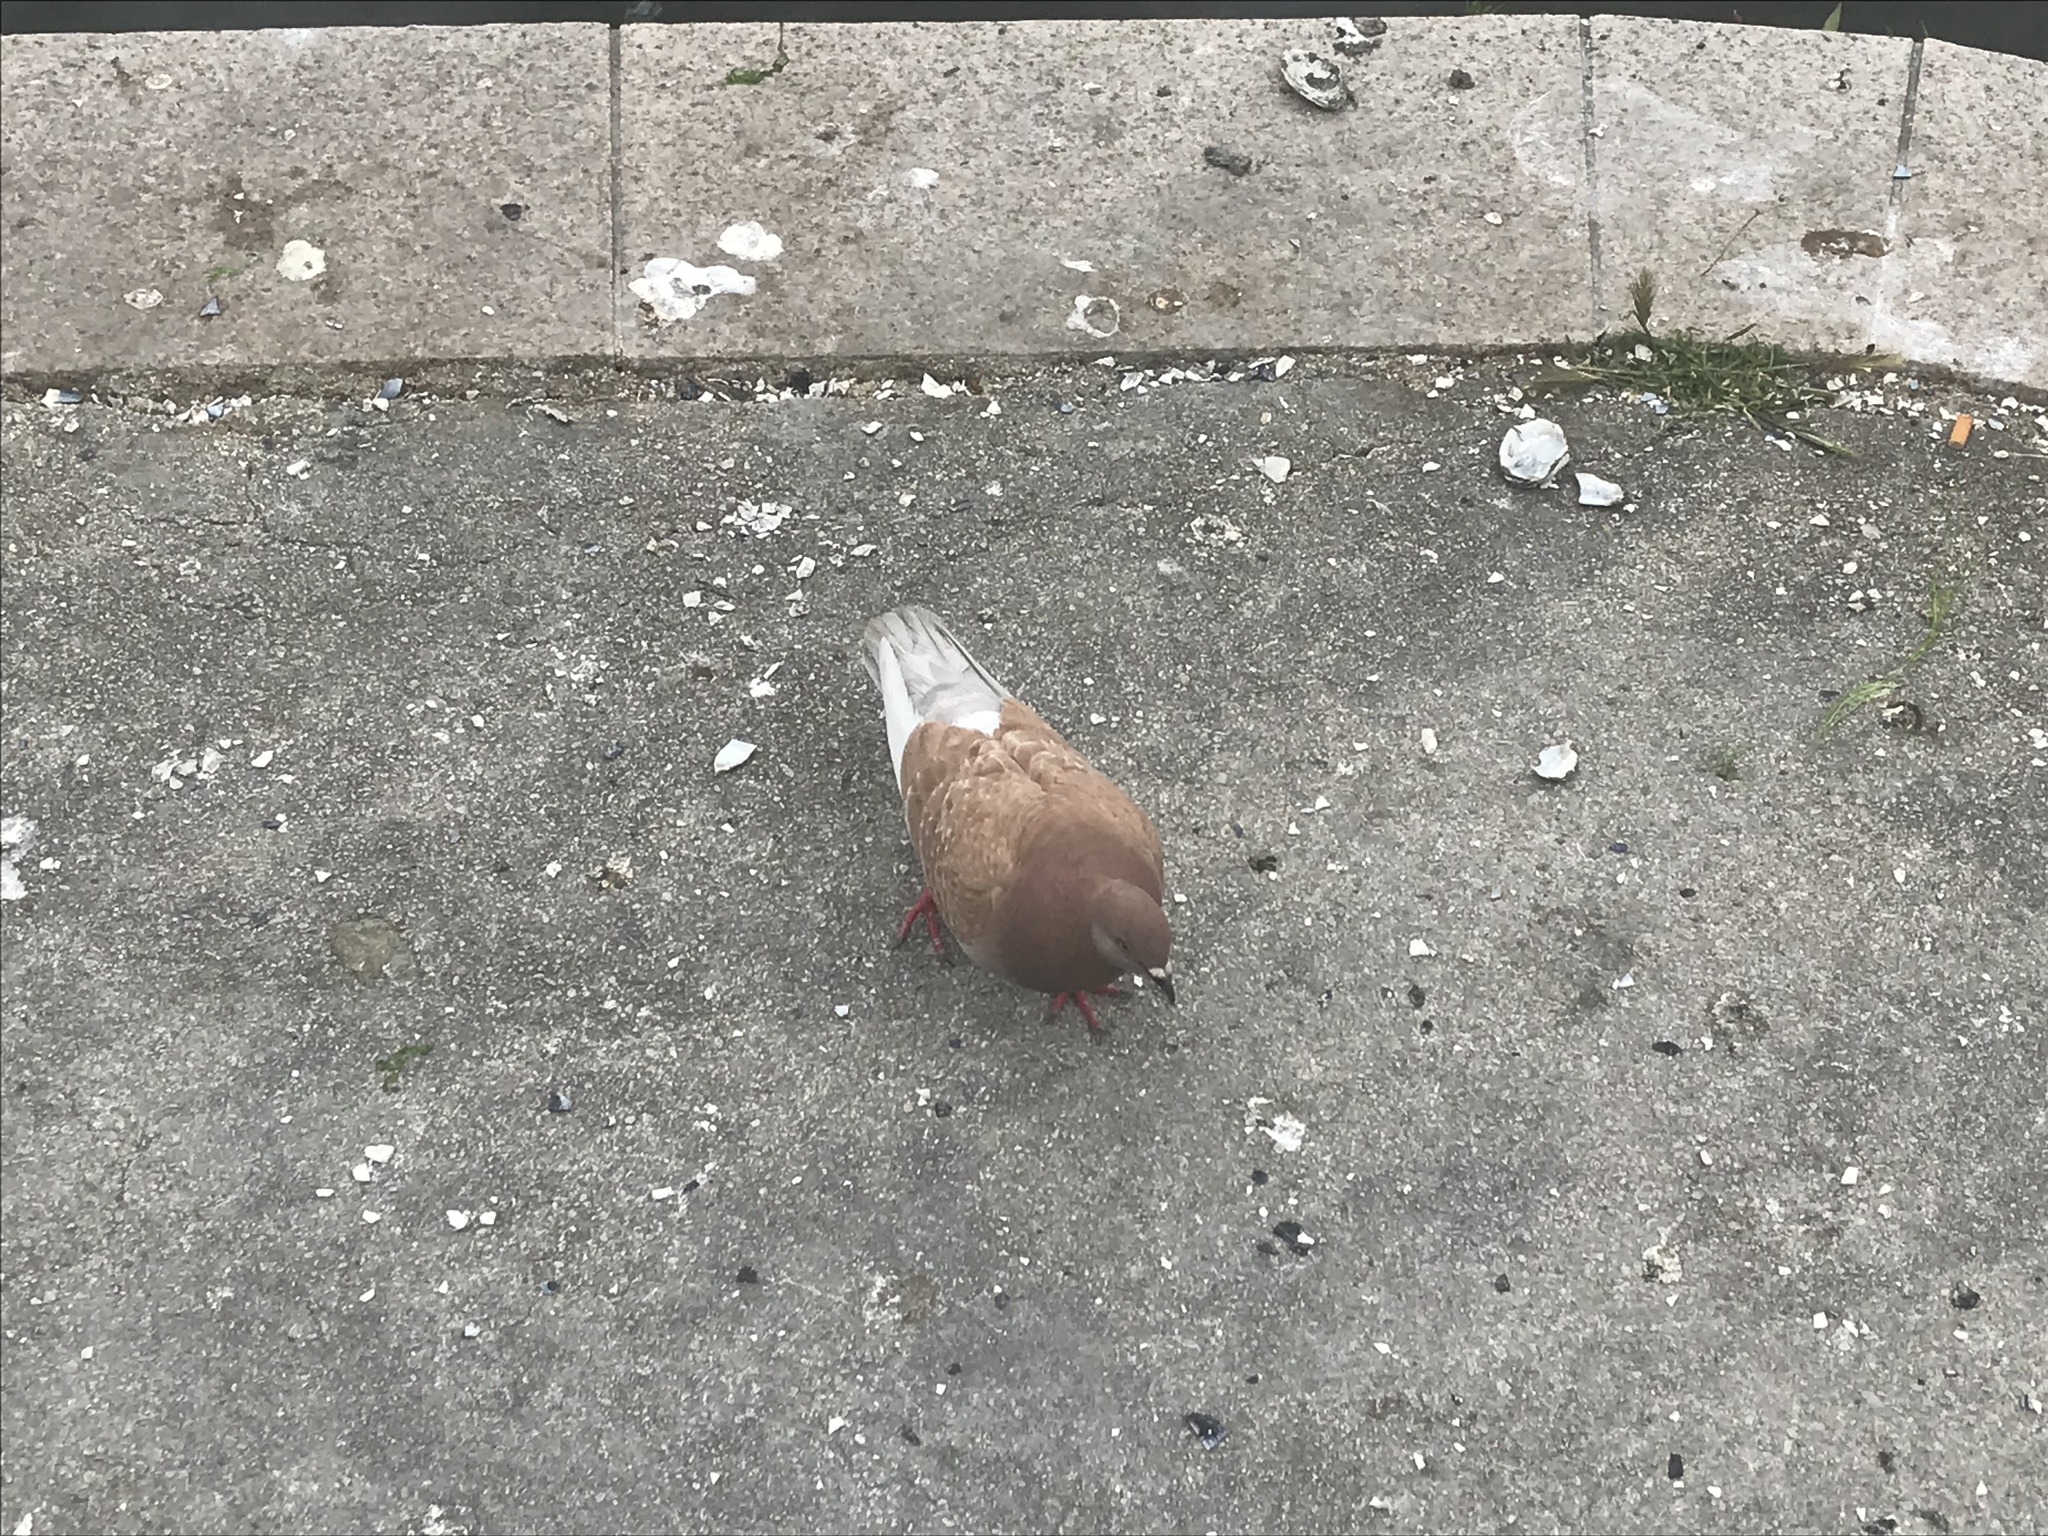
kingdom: Animalia
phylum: Chordata
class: Aves
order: Columbiformes
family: Columbidae
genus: Columba
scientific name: Columba livia
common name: Rock pigeon
